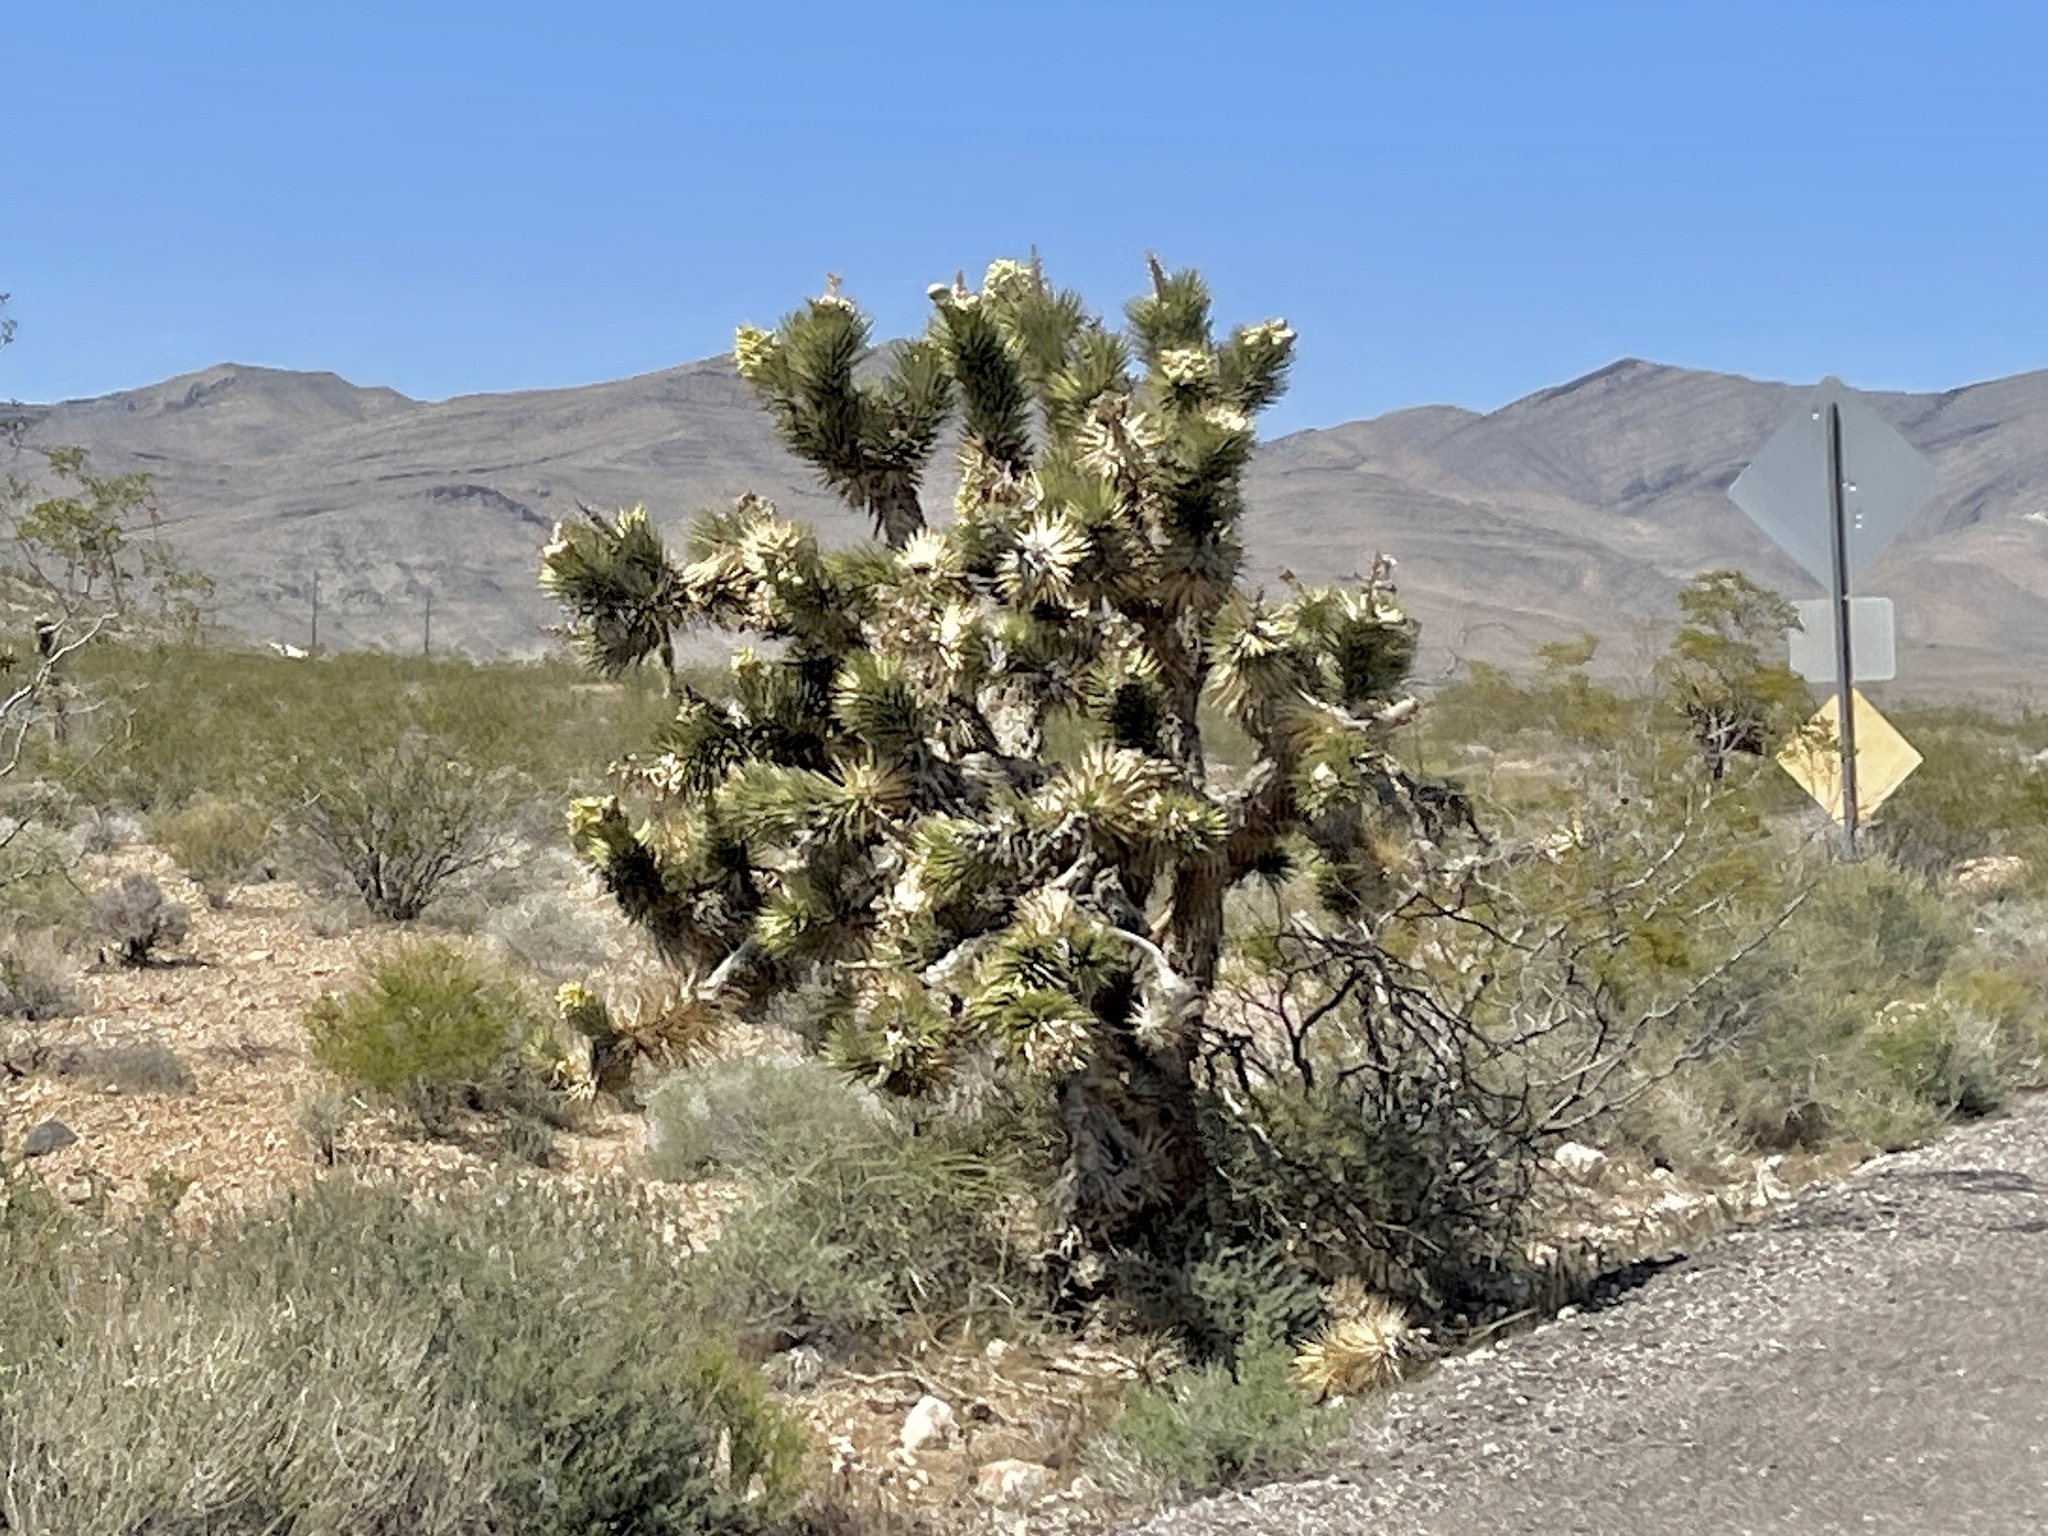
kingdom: Plantae
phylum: Tracheophyta
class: Liliopsida
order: Asparagales
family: Asparagaceae
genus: Yucca
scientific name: Yucca brevifolia
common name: Joshua tree
